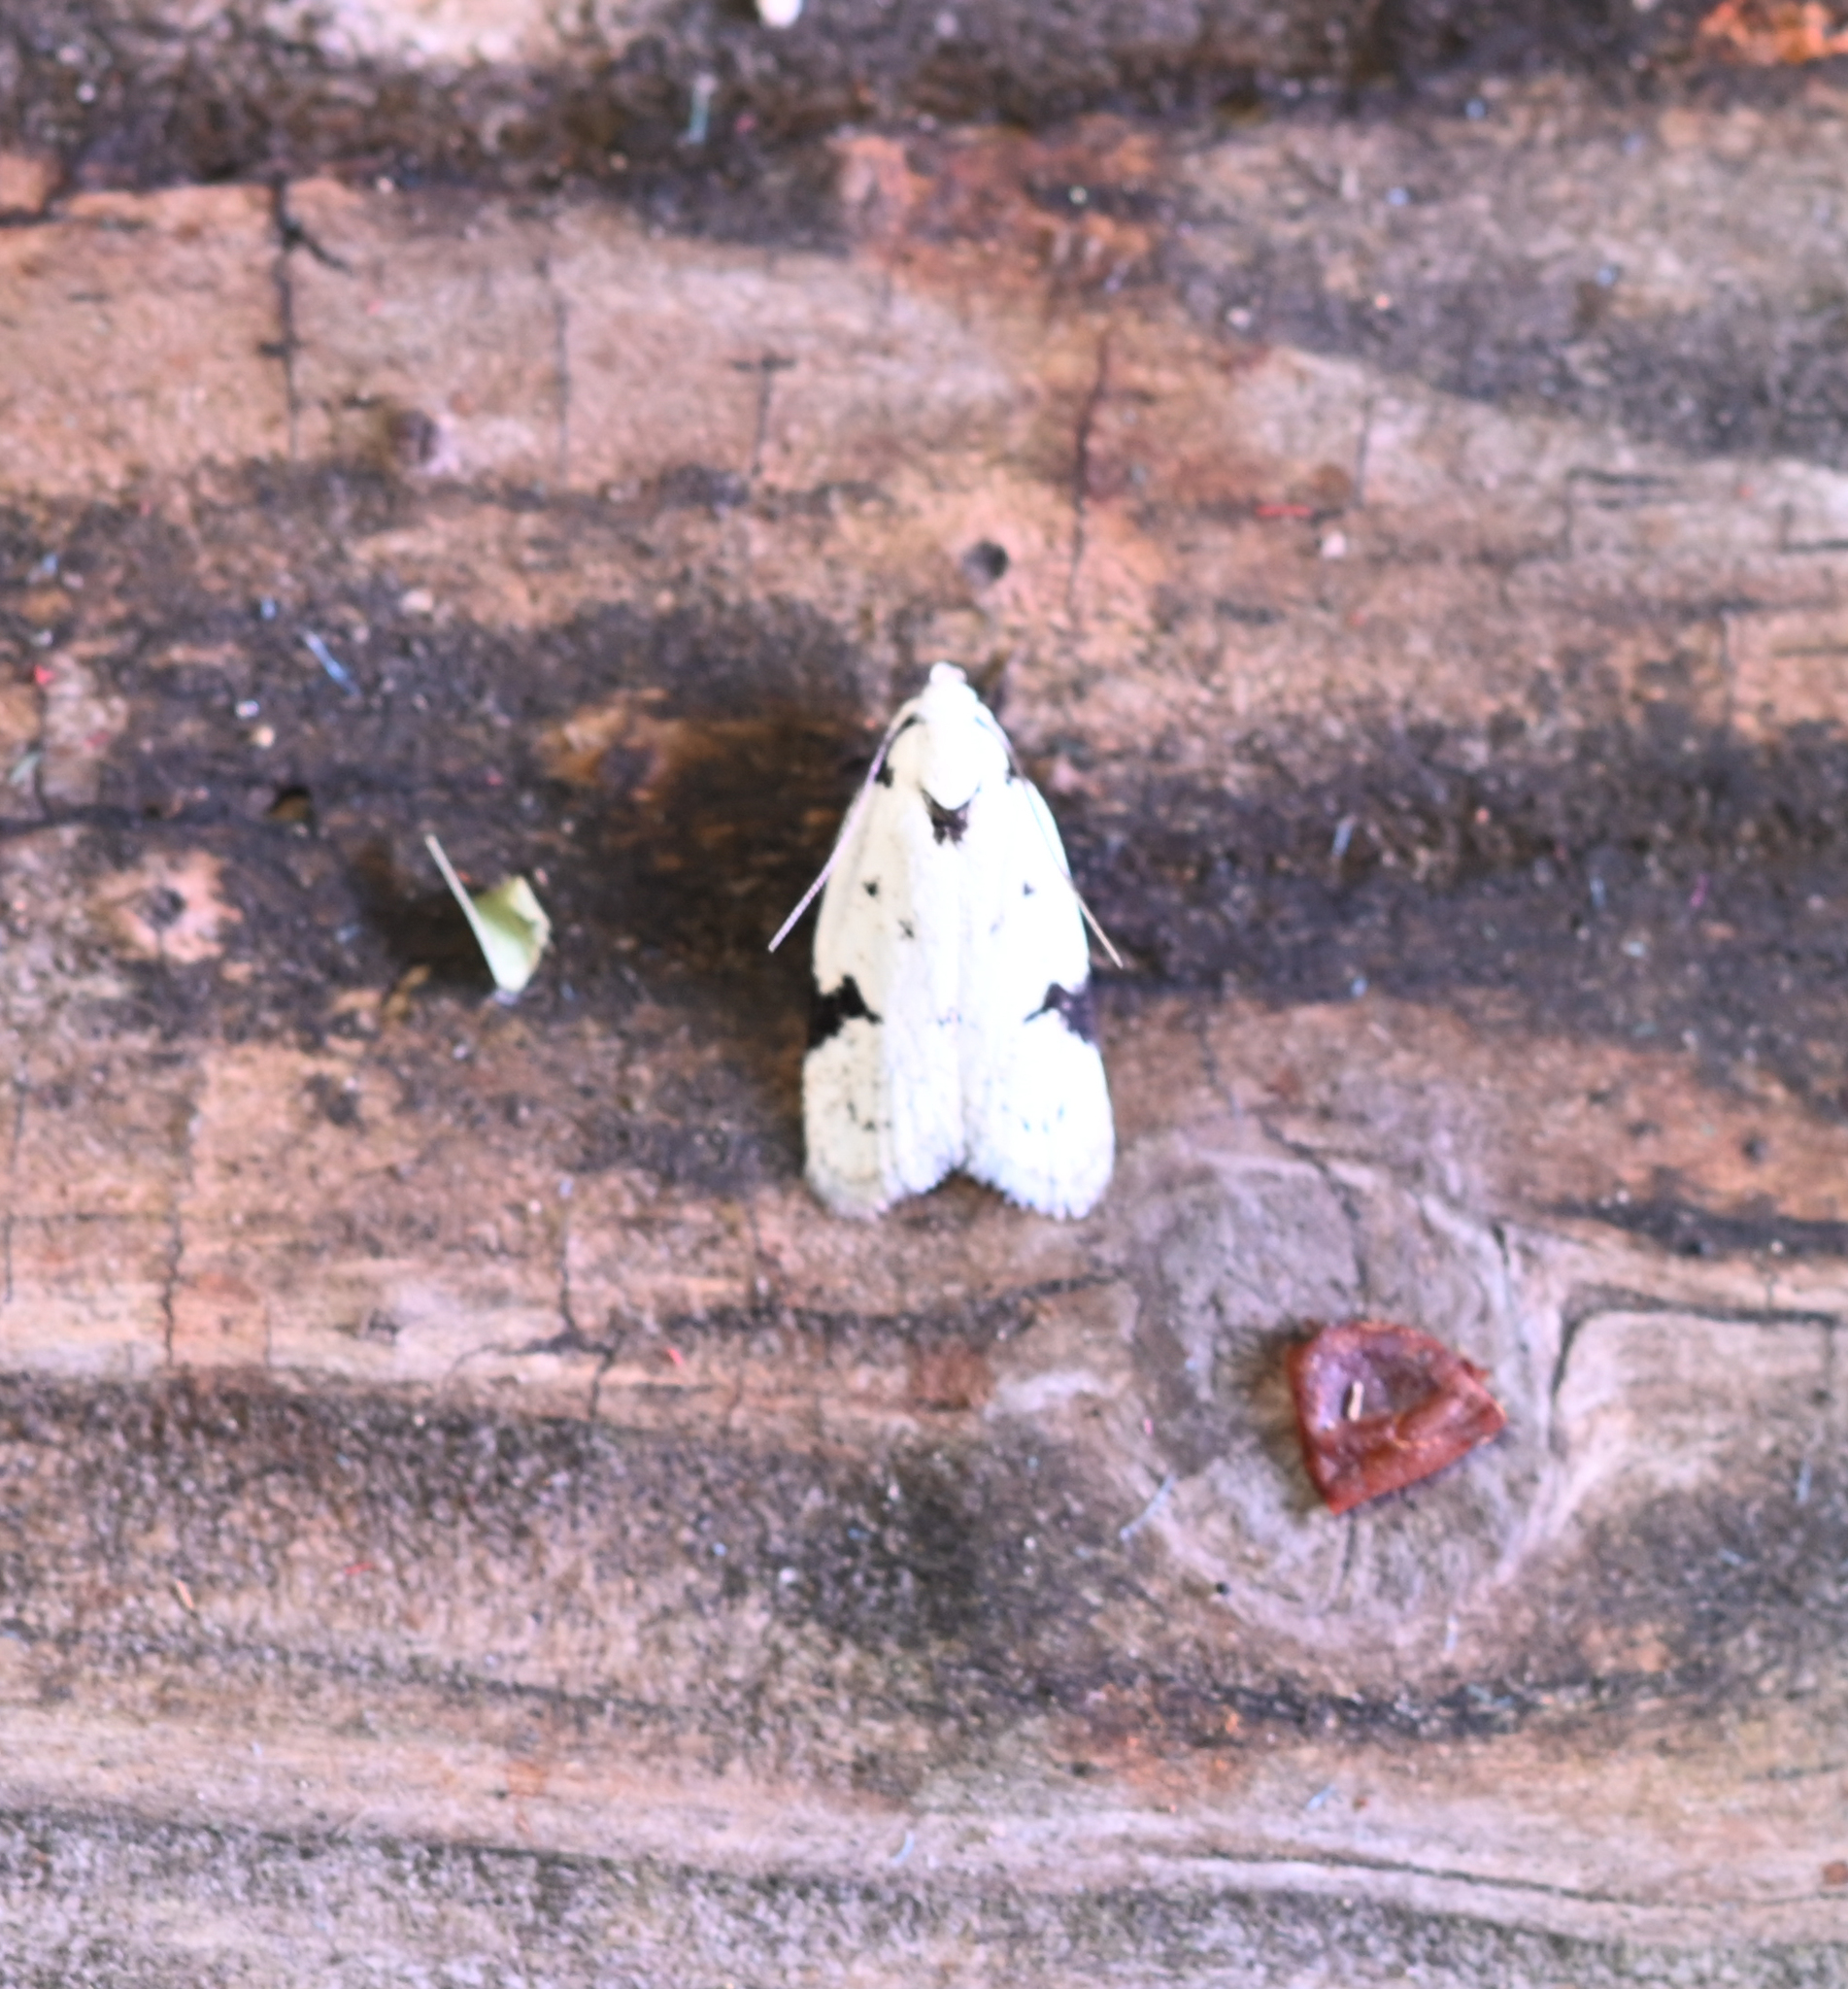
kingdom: Animalia
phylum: Arthropoda
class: Insecta
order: Lepidoptera
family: Oecophoridae
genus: Inga
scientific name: Inga sparsiciliella
